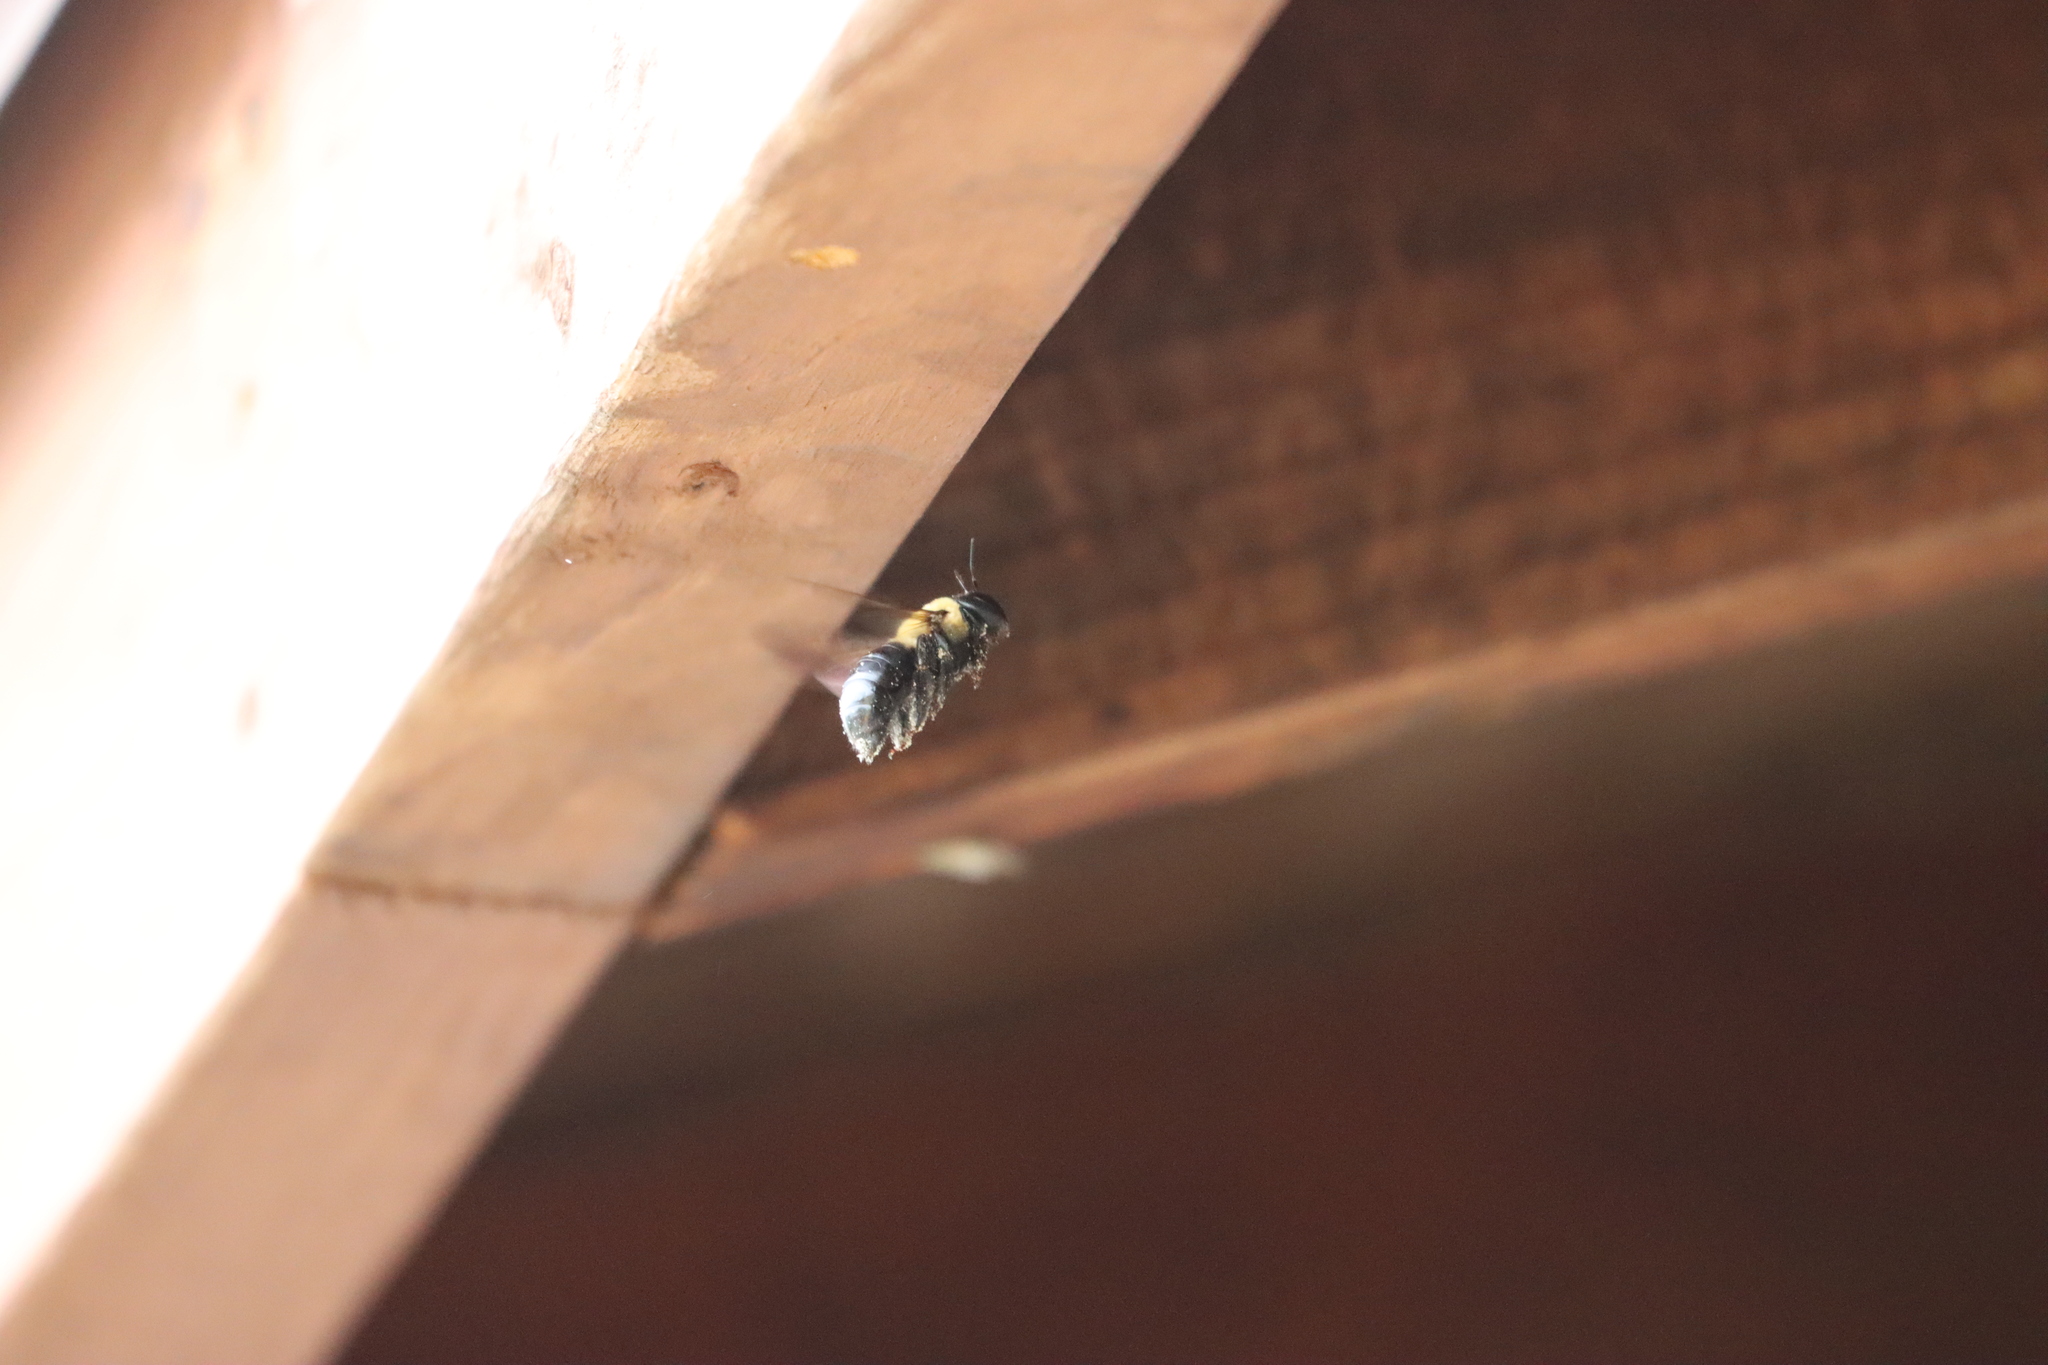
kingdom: Animalia
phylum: Arthropoda
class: Insecta
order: Hymenoptera
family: Apidae
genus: Xylocopa
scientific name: Xylocopa virginica
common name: Carpenter bee
